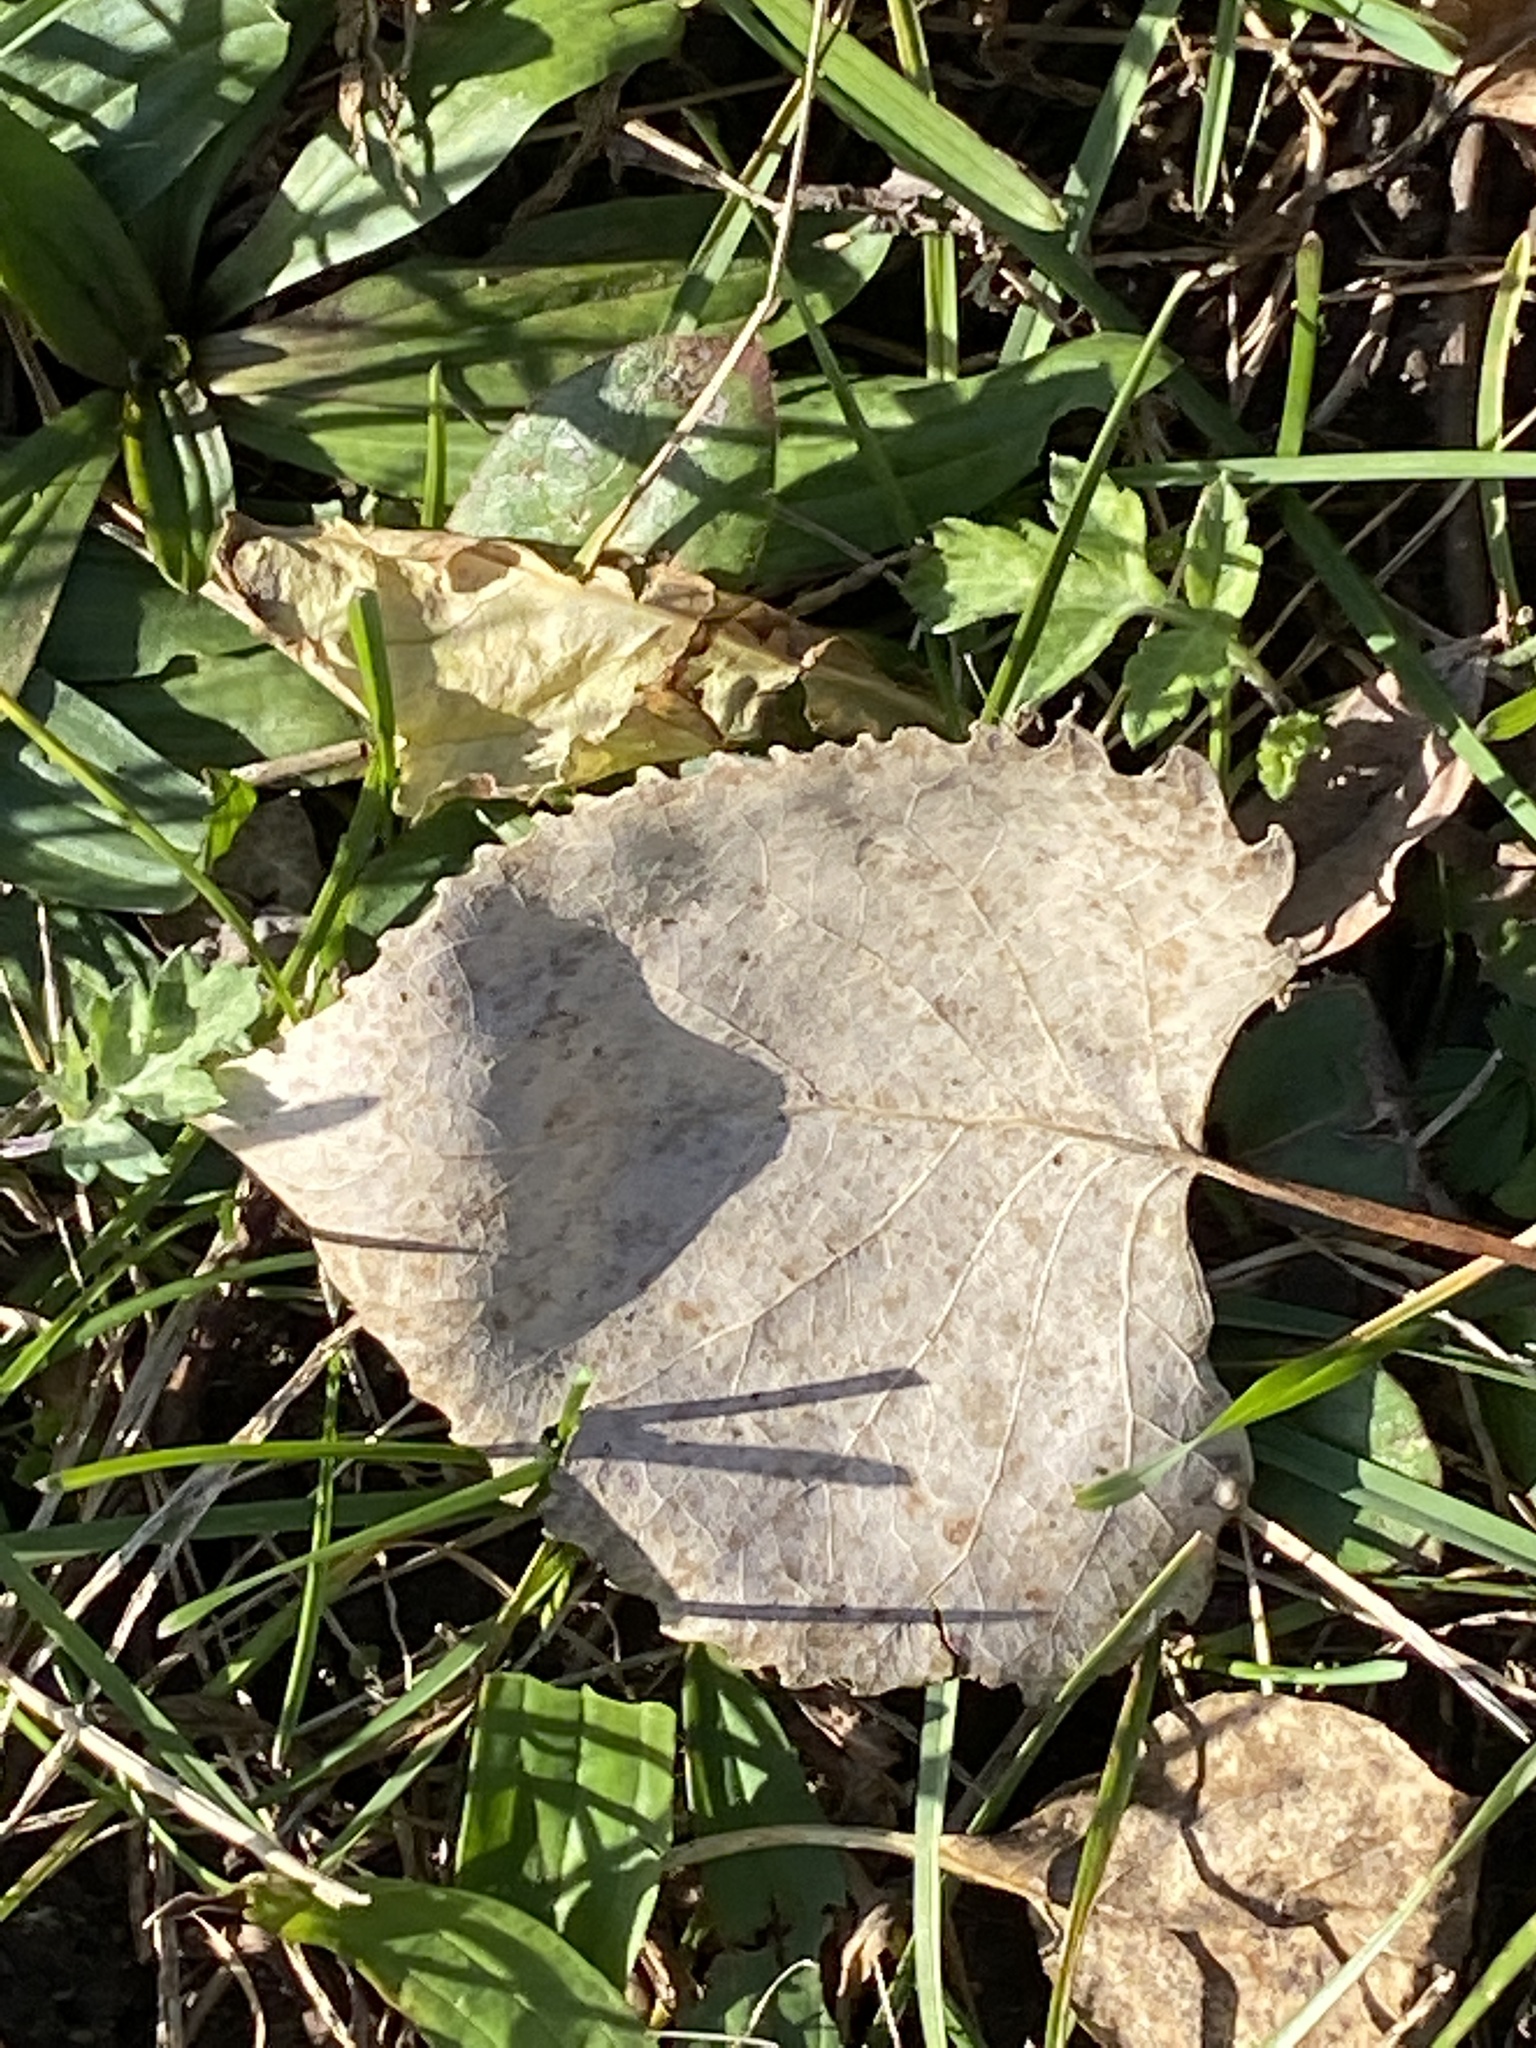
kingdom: Plantae
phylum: Tracheophyta
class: Magnoliopsida
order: Malpighiales
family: Salicaceae
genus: Populus
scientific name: Populus deltoides
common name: Eastern cottonwood
